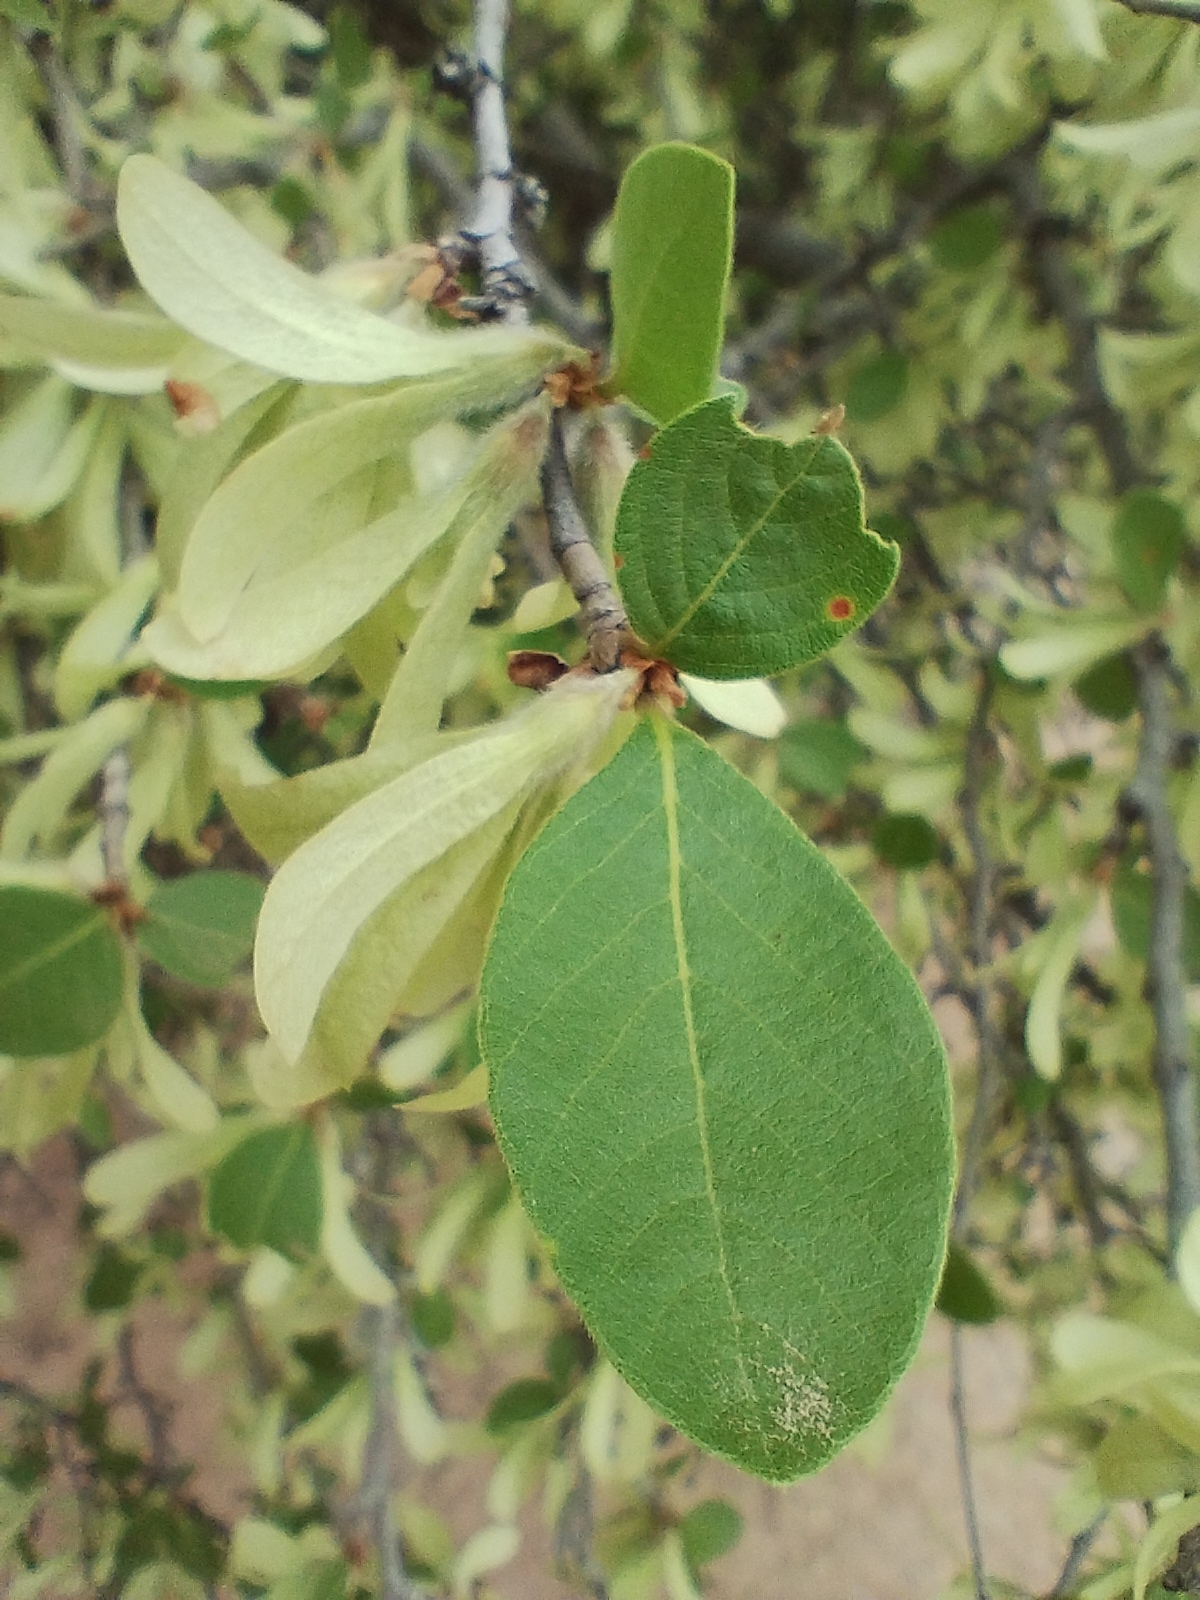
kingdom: Plantae
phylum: Tracheophyta
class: Magnoliopsida
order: Caryophyllales
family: Polygonaceae
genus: Salta
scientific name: Salta triflora
